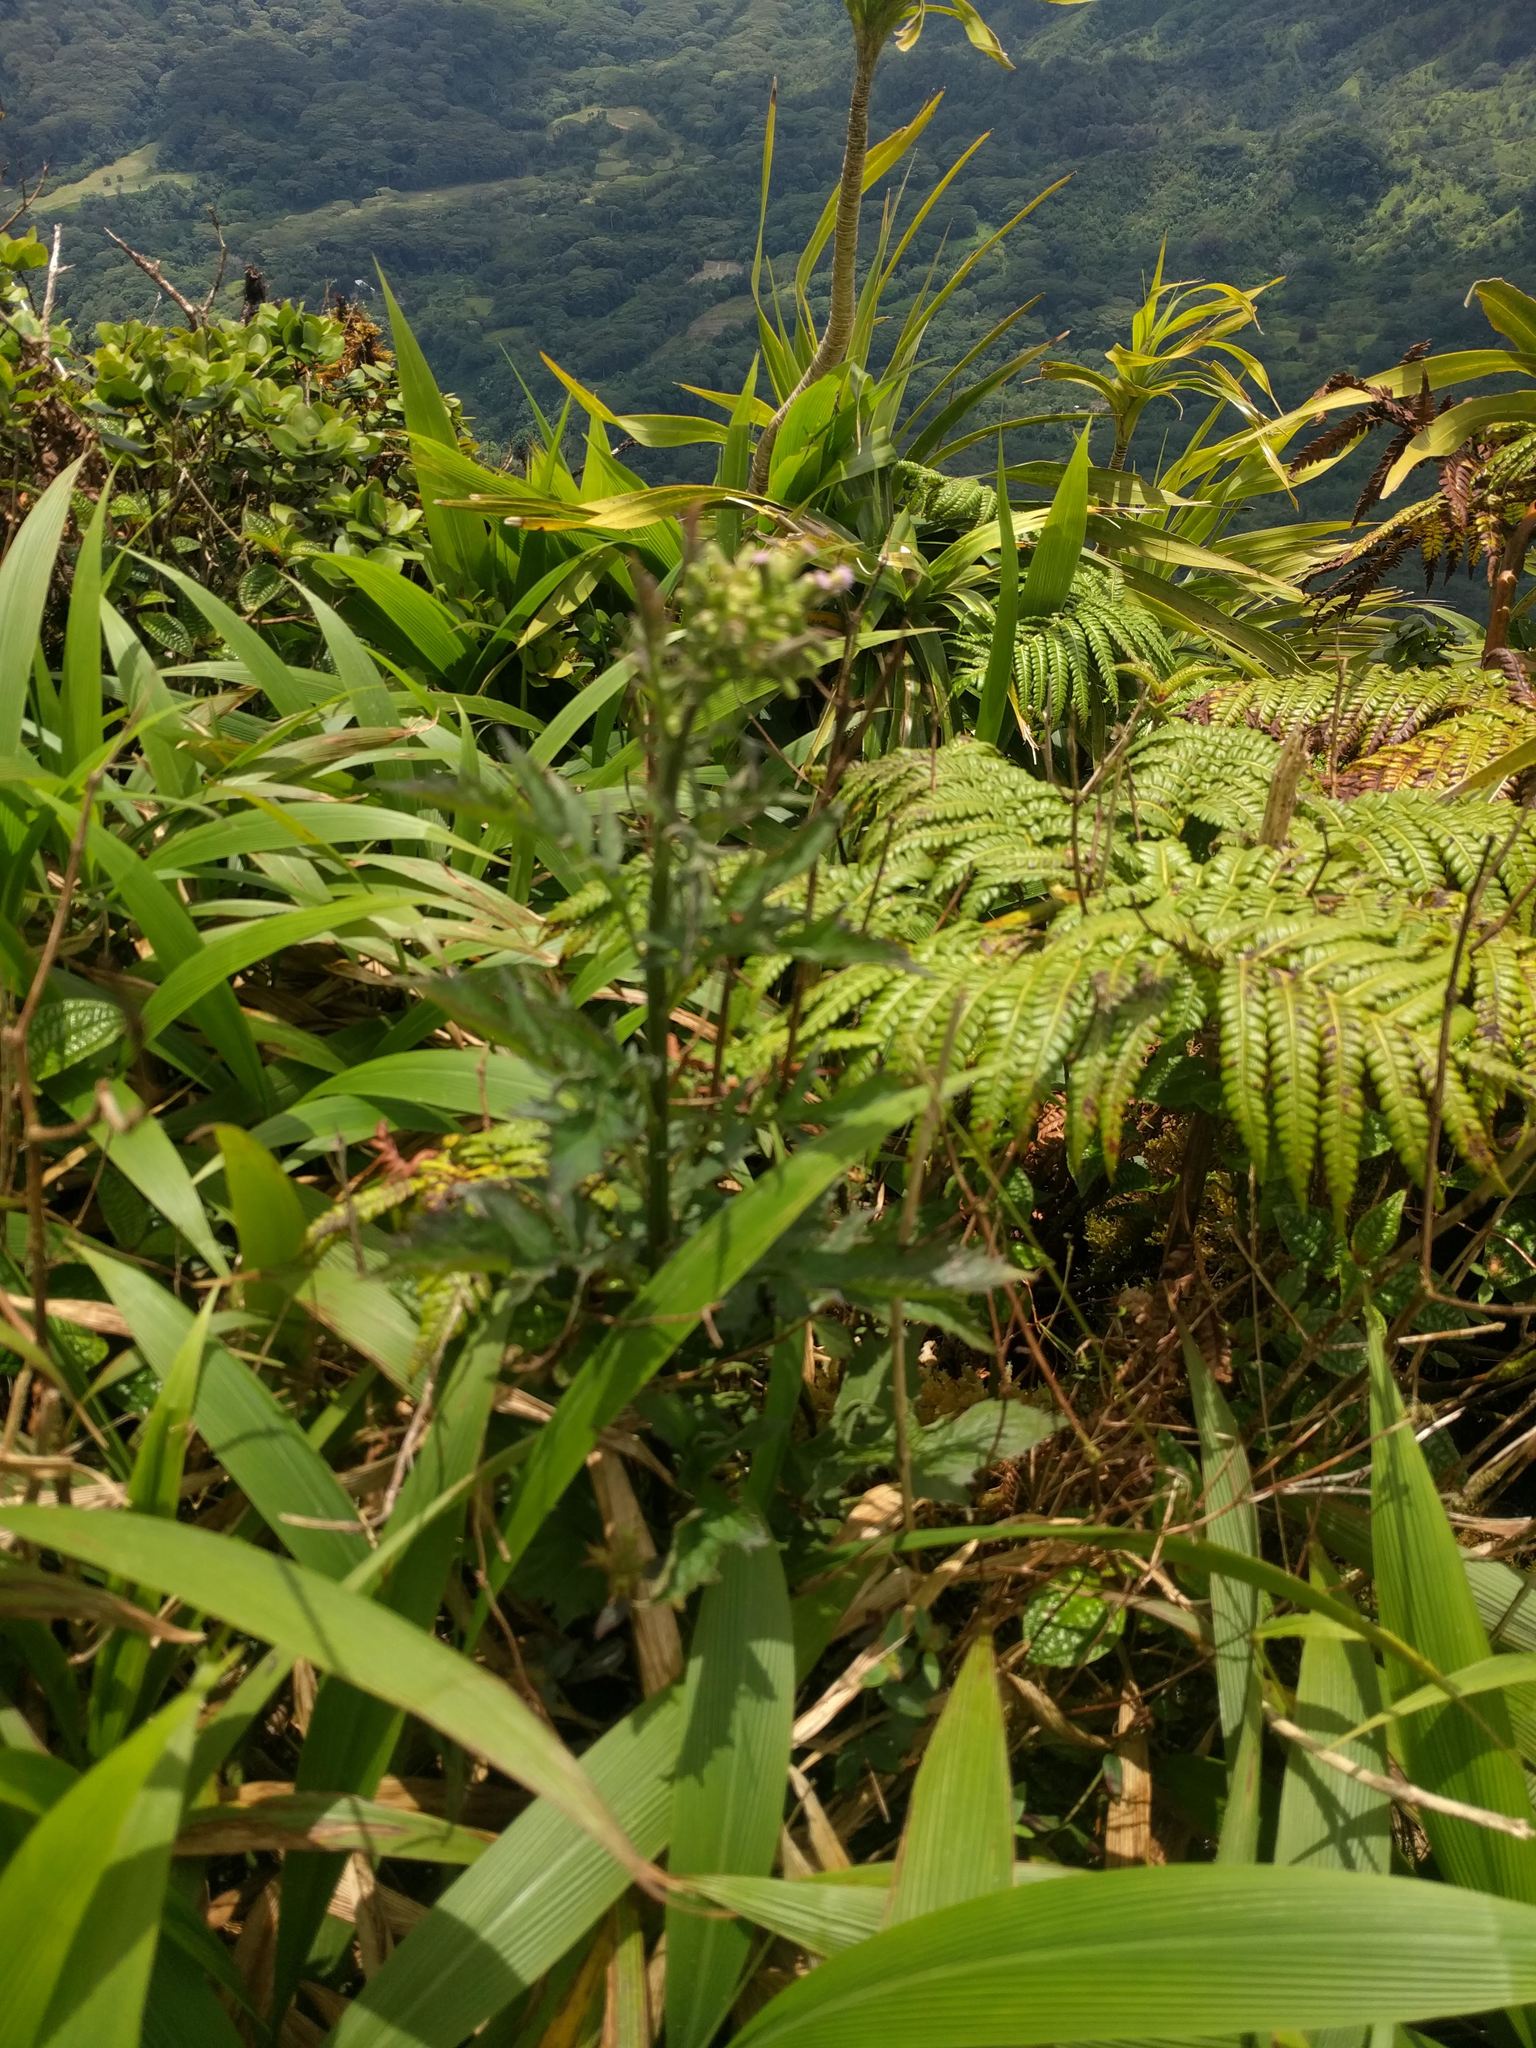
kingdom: Plantae
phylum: Tracheophyta
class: Magnoliopsida
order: Asterales
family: Asteraceae
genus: Erechtites
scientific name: Erechtites valerianifolius
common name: Tropical burnweed
